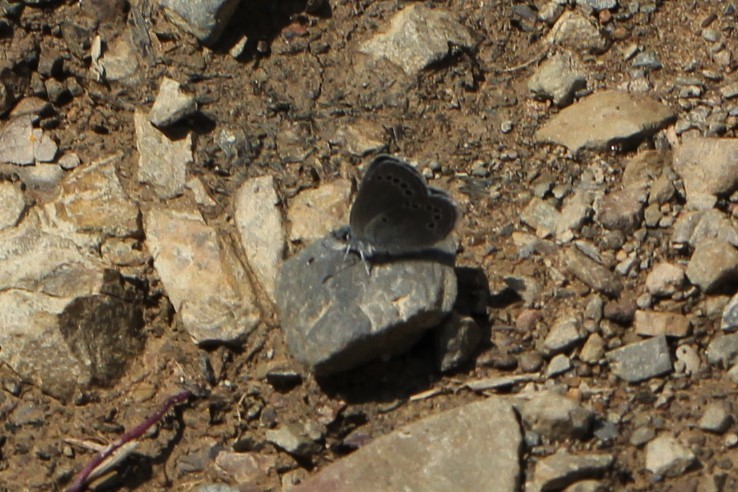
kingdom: Animalia
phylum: Arthropoda
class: Insecta
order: Lepidoptera
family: Lycaenidae
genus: Glaucopsyche
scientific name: Glaucopsyche lygdamus
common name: Silvery blue
